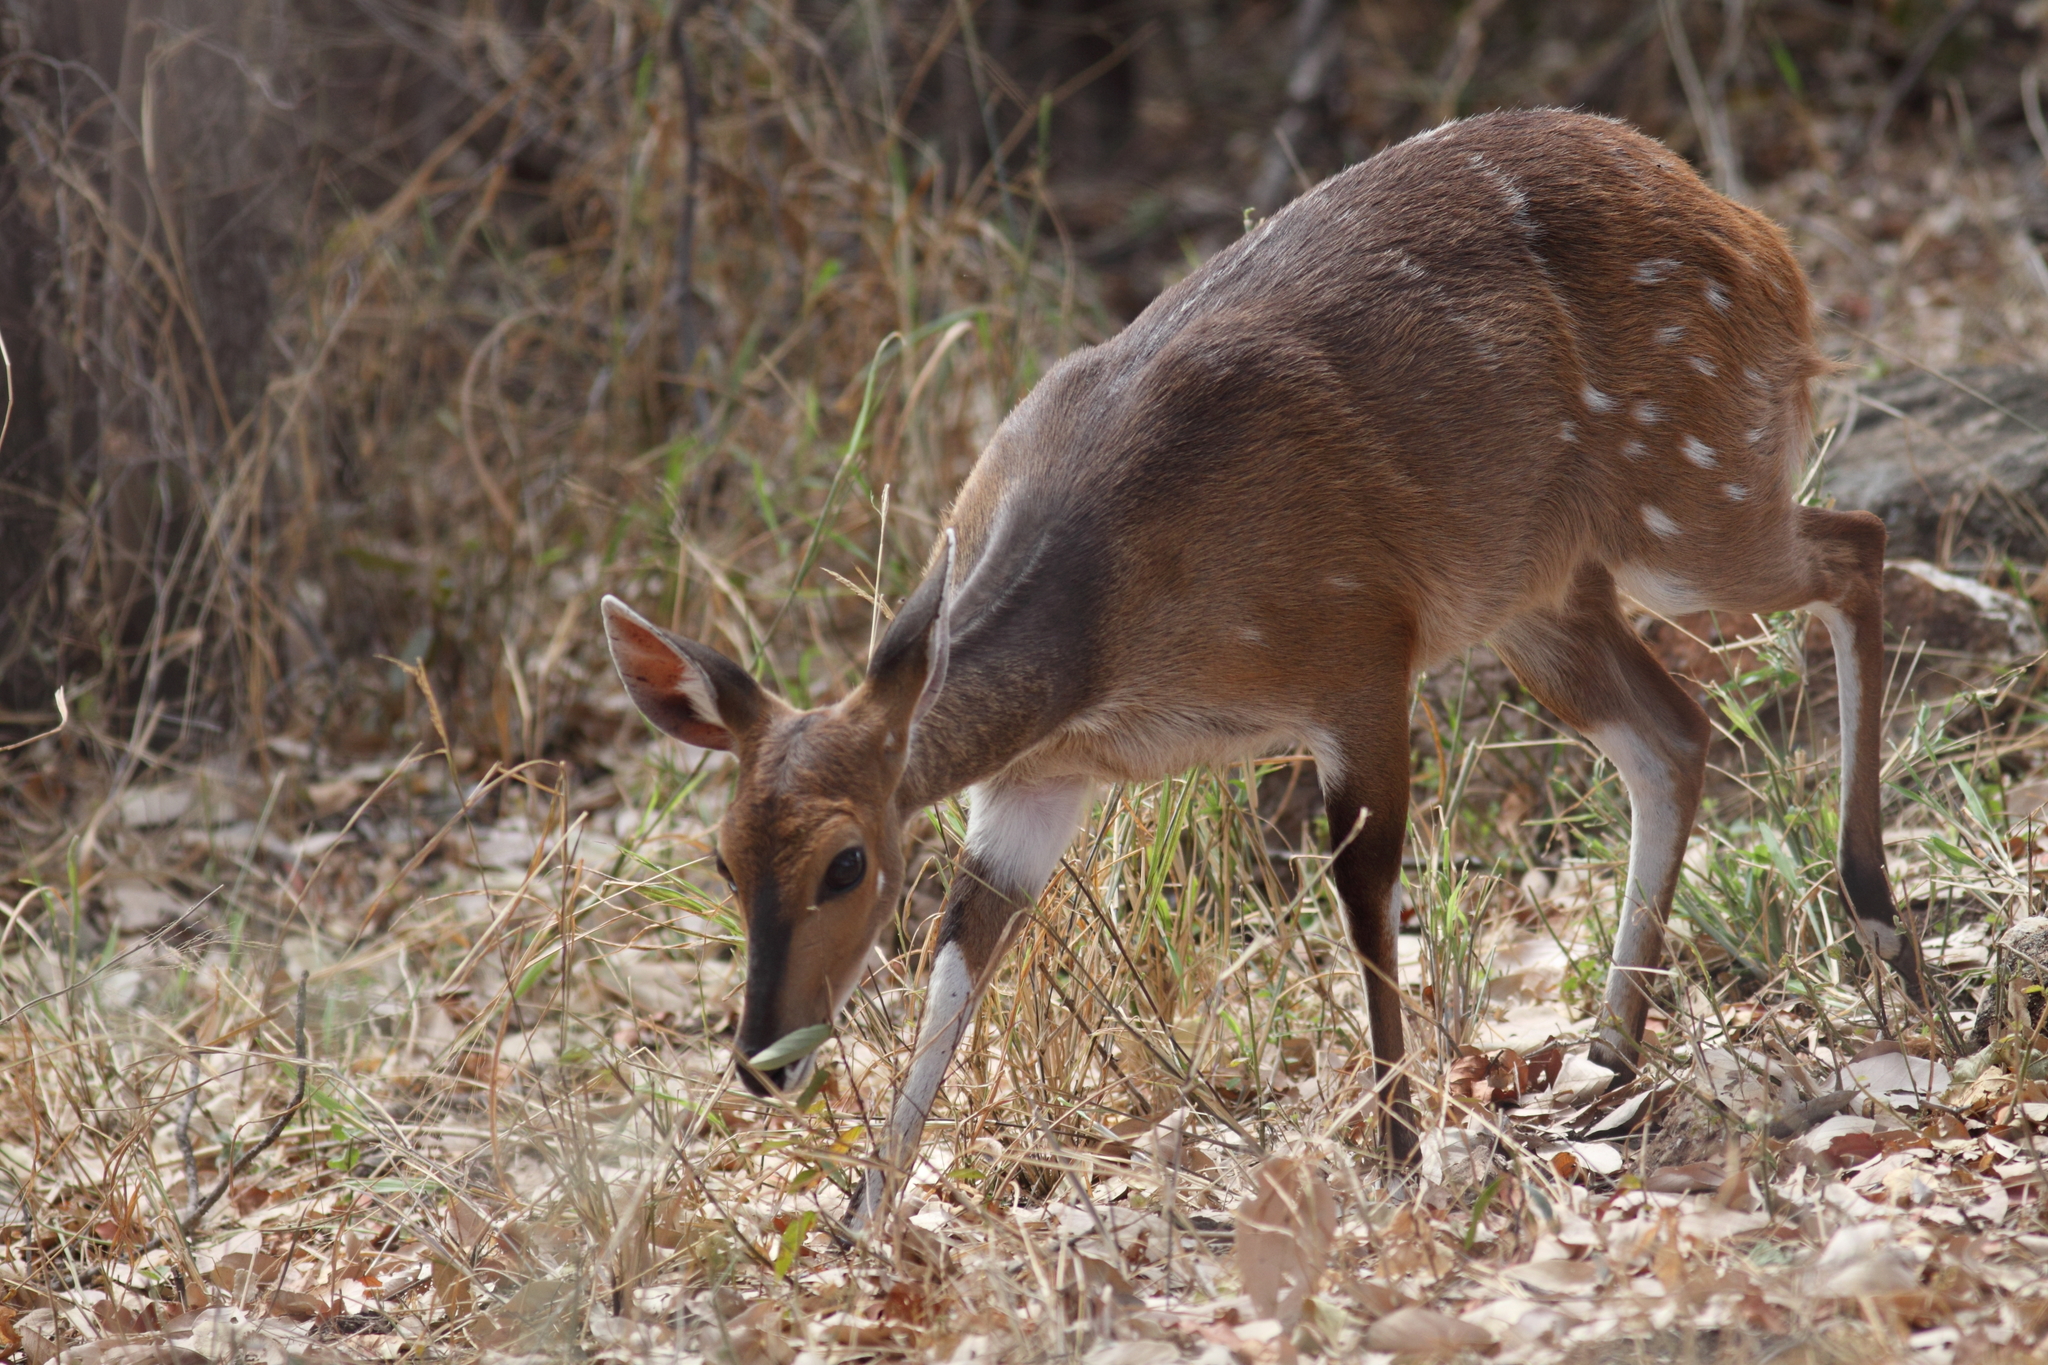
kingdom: Animalia
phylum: Chordata
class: Mammalia
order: Artiodactyla
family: Bovidae
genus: Tragelaphus
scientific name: Tragelaphus scriptus
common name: Bushbuck
